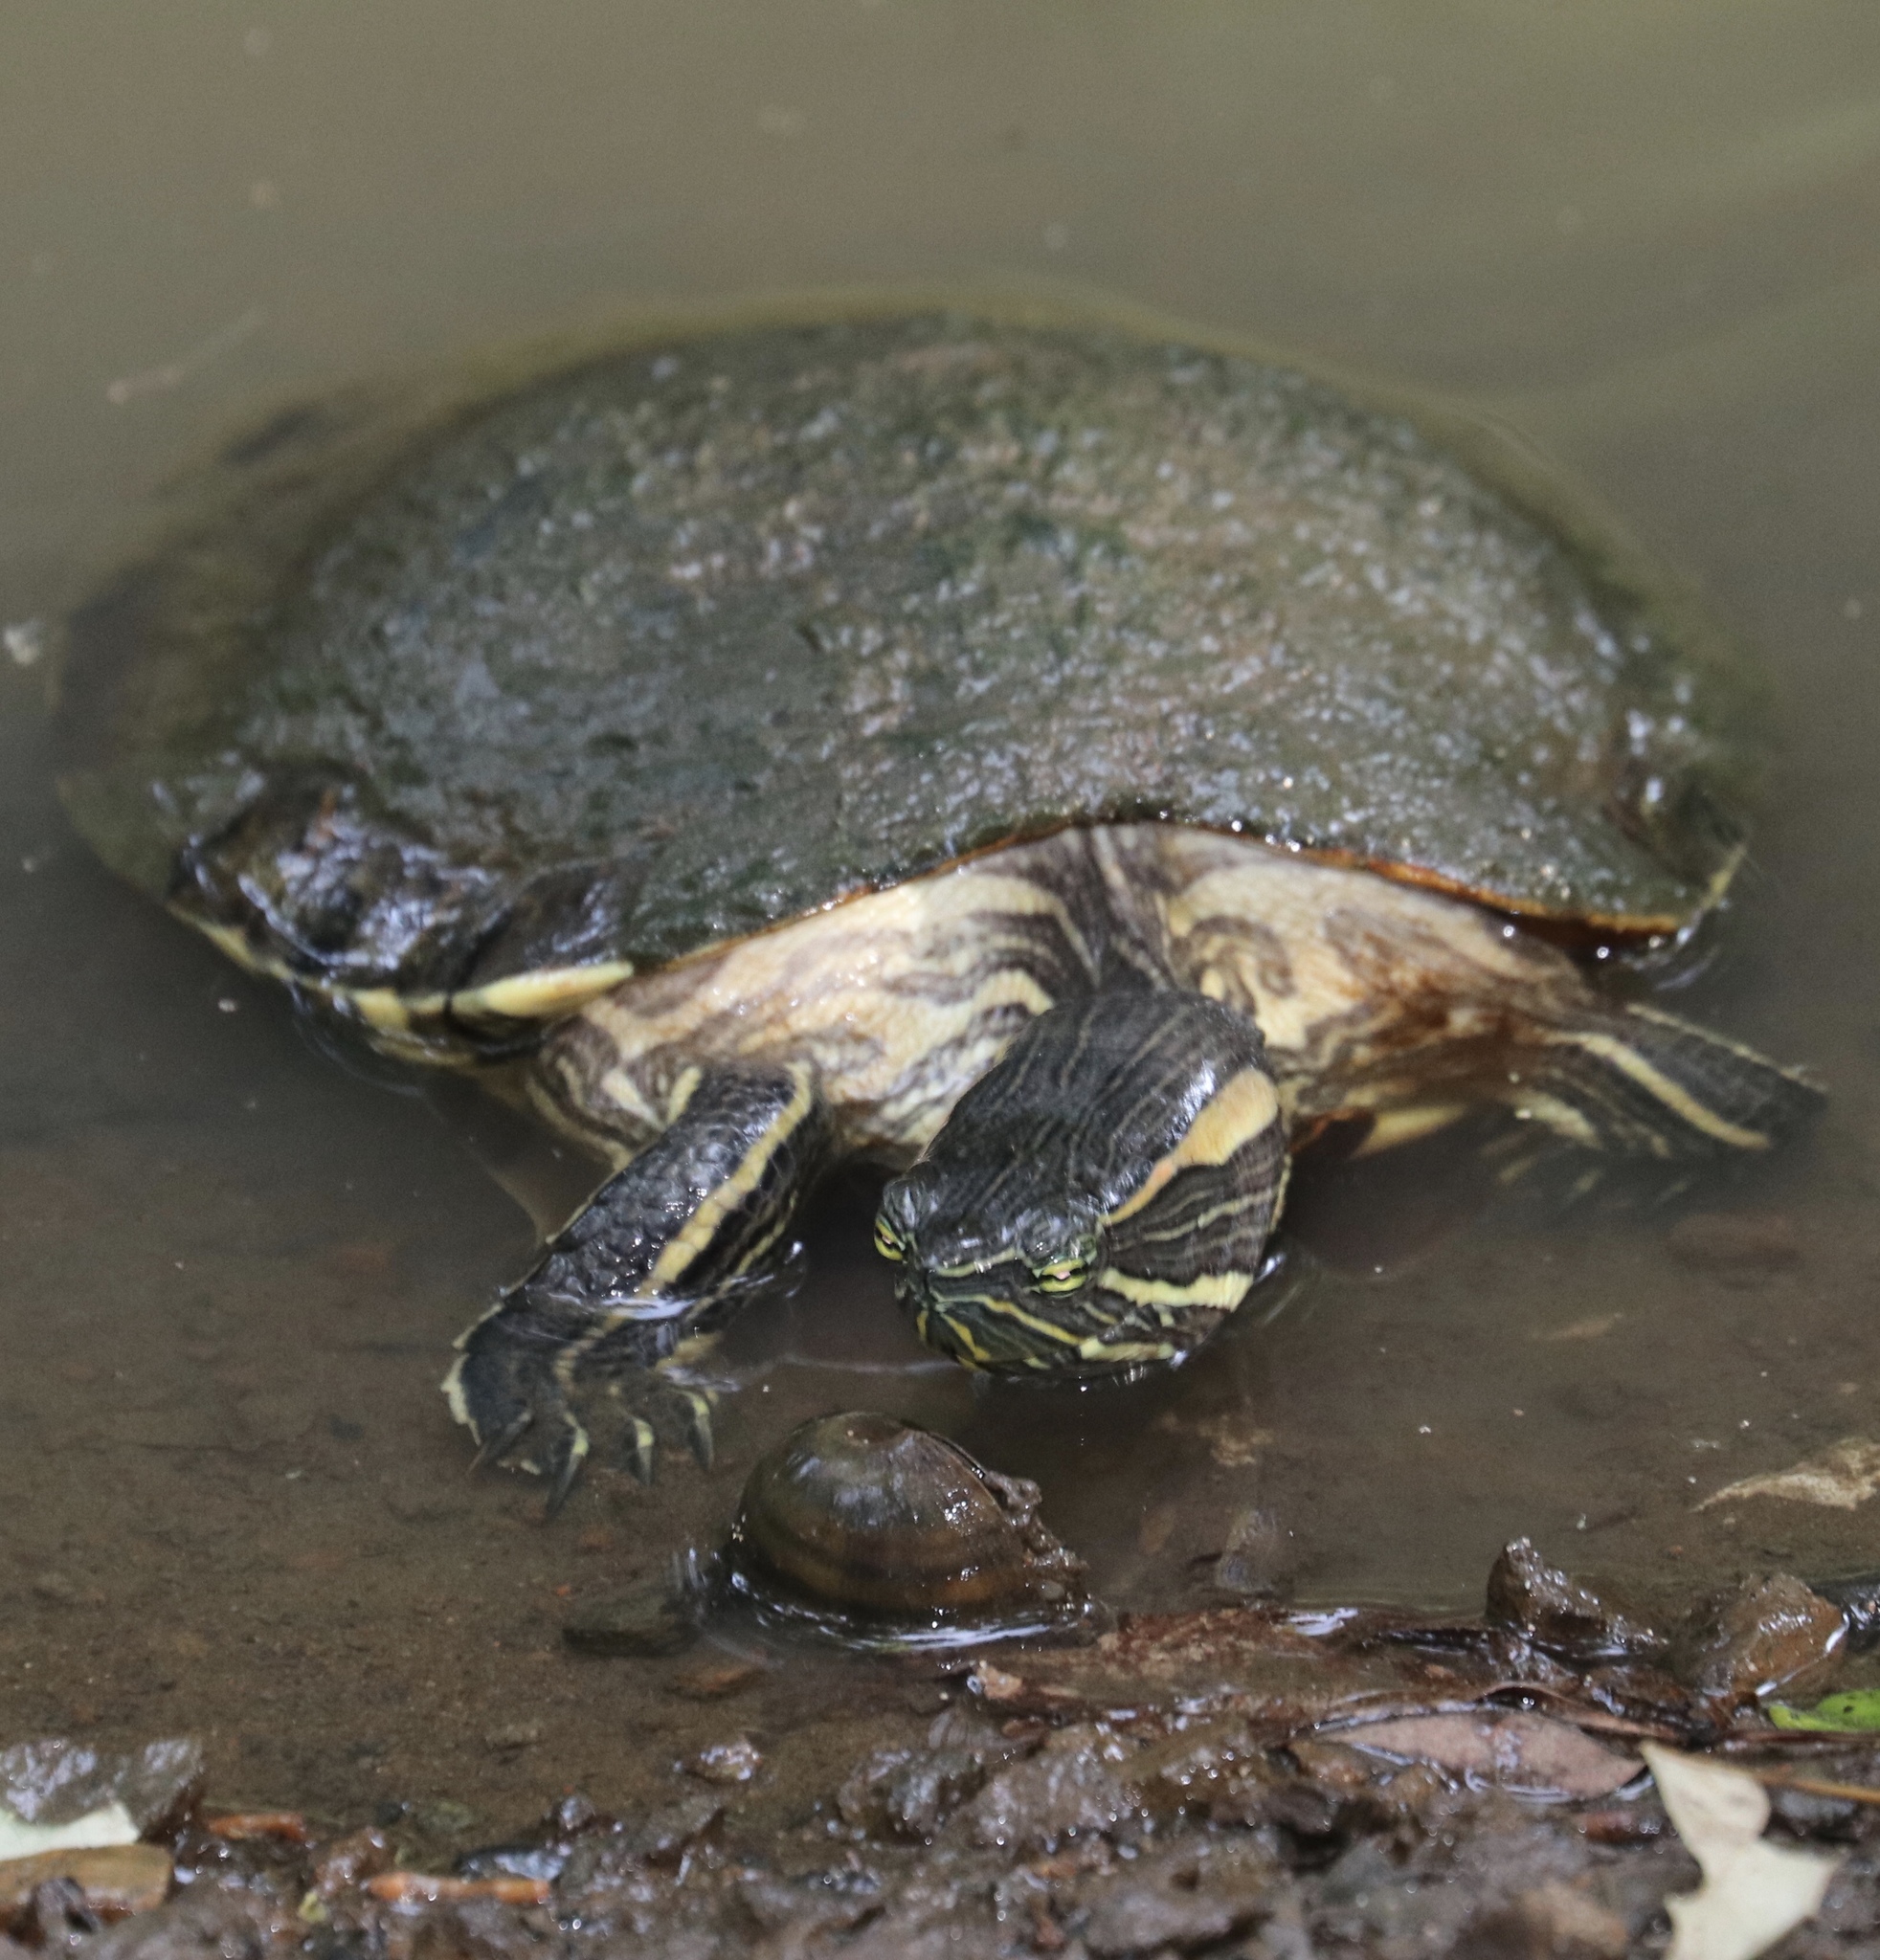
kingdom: Animalia
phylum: Chordata
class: Testudines
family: Emydidae
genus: Trachemys
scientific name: Trachemys grayi
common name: Gray's slider
